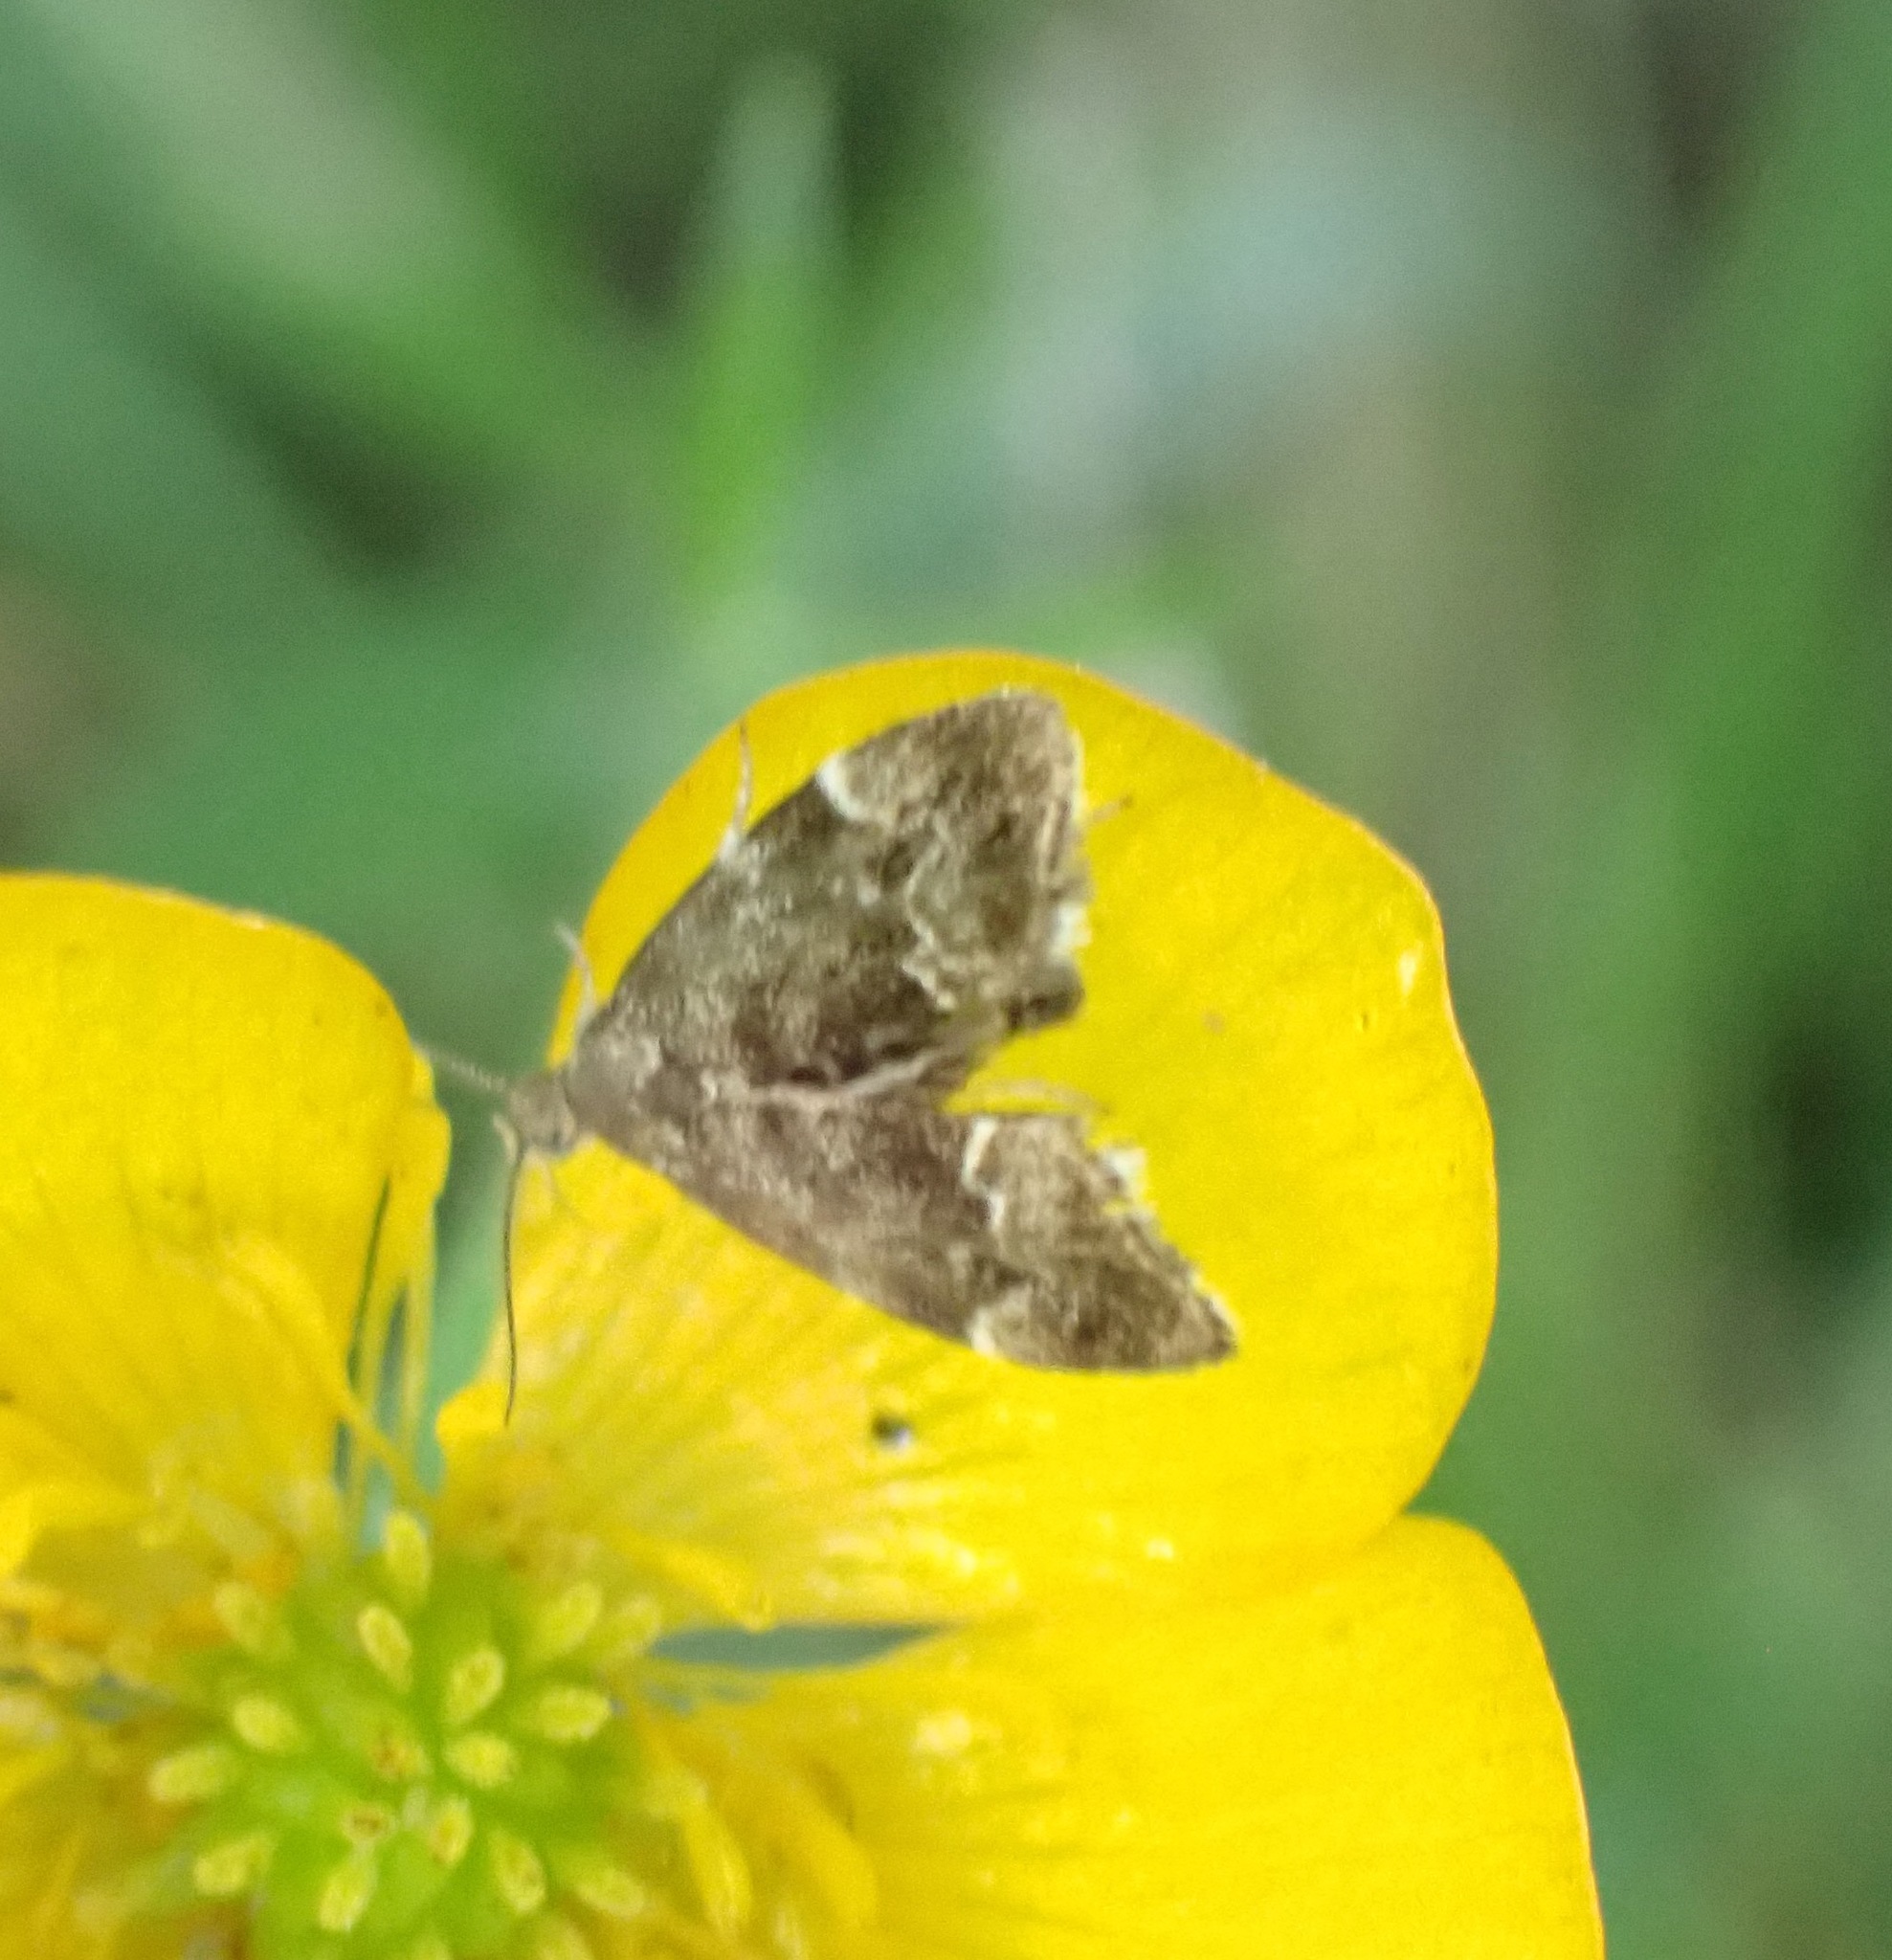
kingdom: Animalia
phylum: Arthropoda
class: Insecta
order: Lepidoptera
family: Choreutidae
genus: Anthophila
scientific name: Anthophila fabriciana
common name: Nettle-tap
